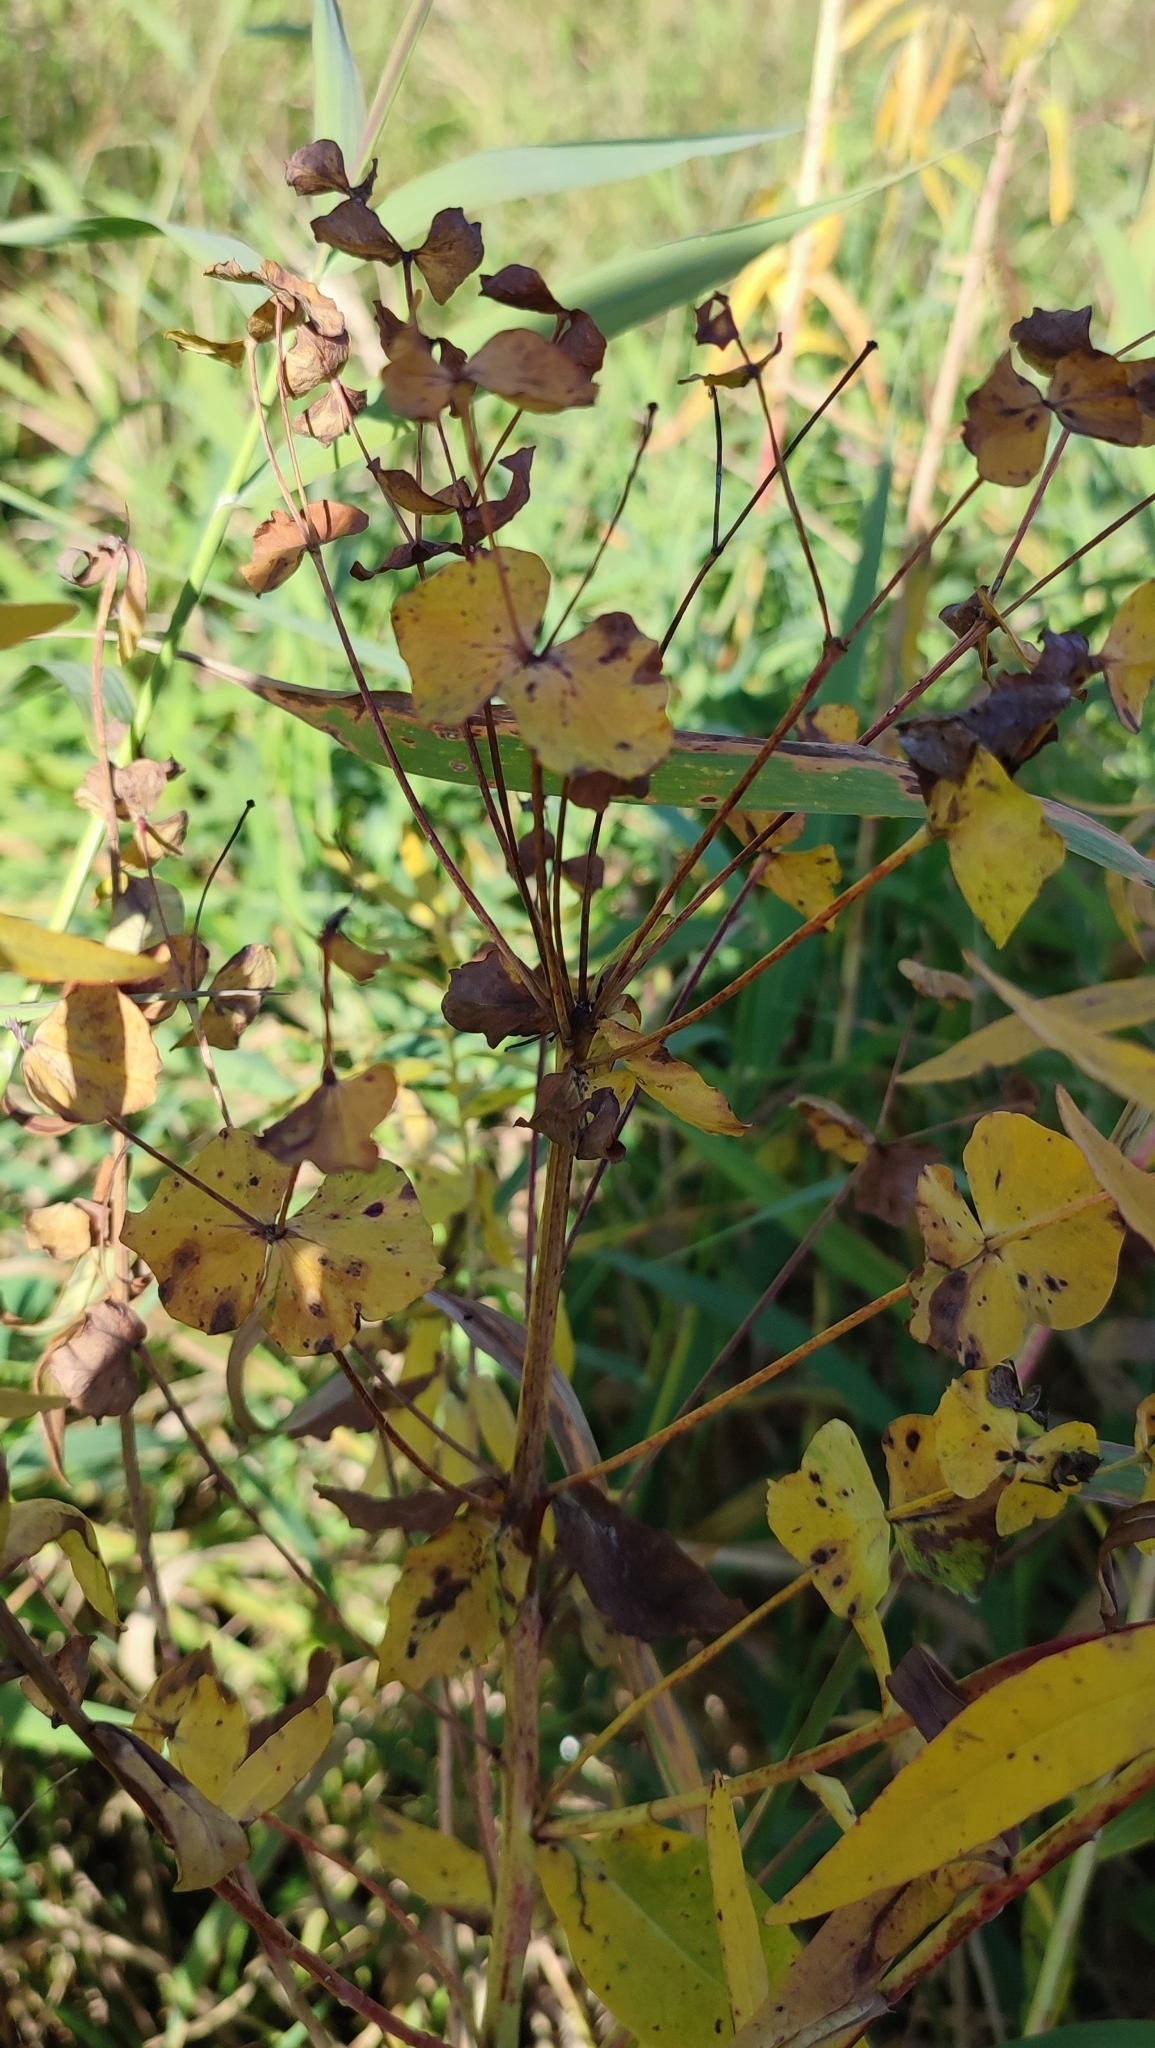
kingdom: Plantae
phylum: Tracheophyta
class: Magnoliopsida
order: Malpighiales
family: Euphorbiaceae
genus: Euphorbia
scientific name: Euphorbia lucida
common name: Shining spurge
